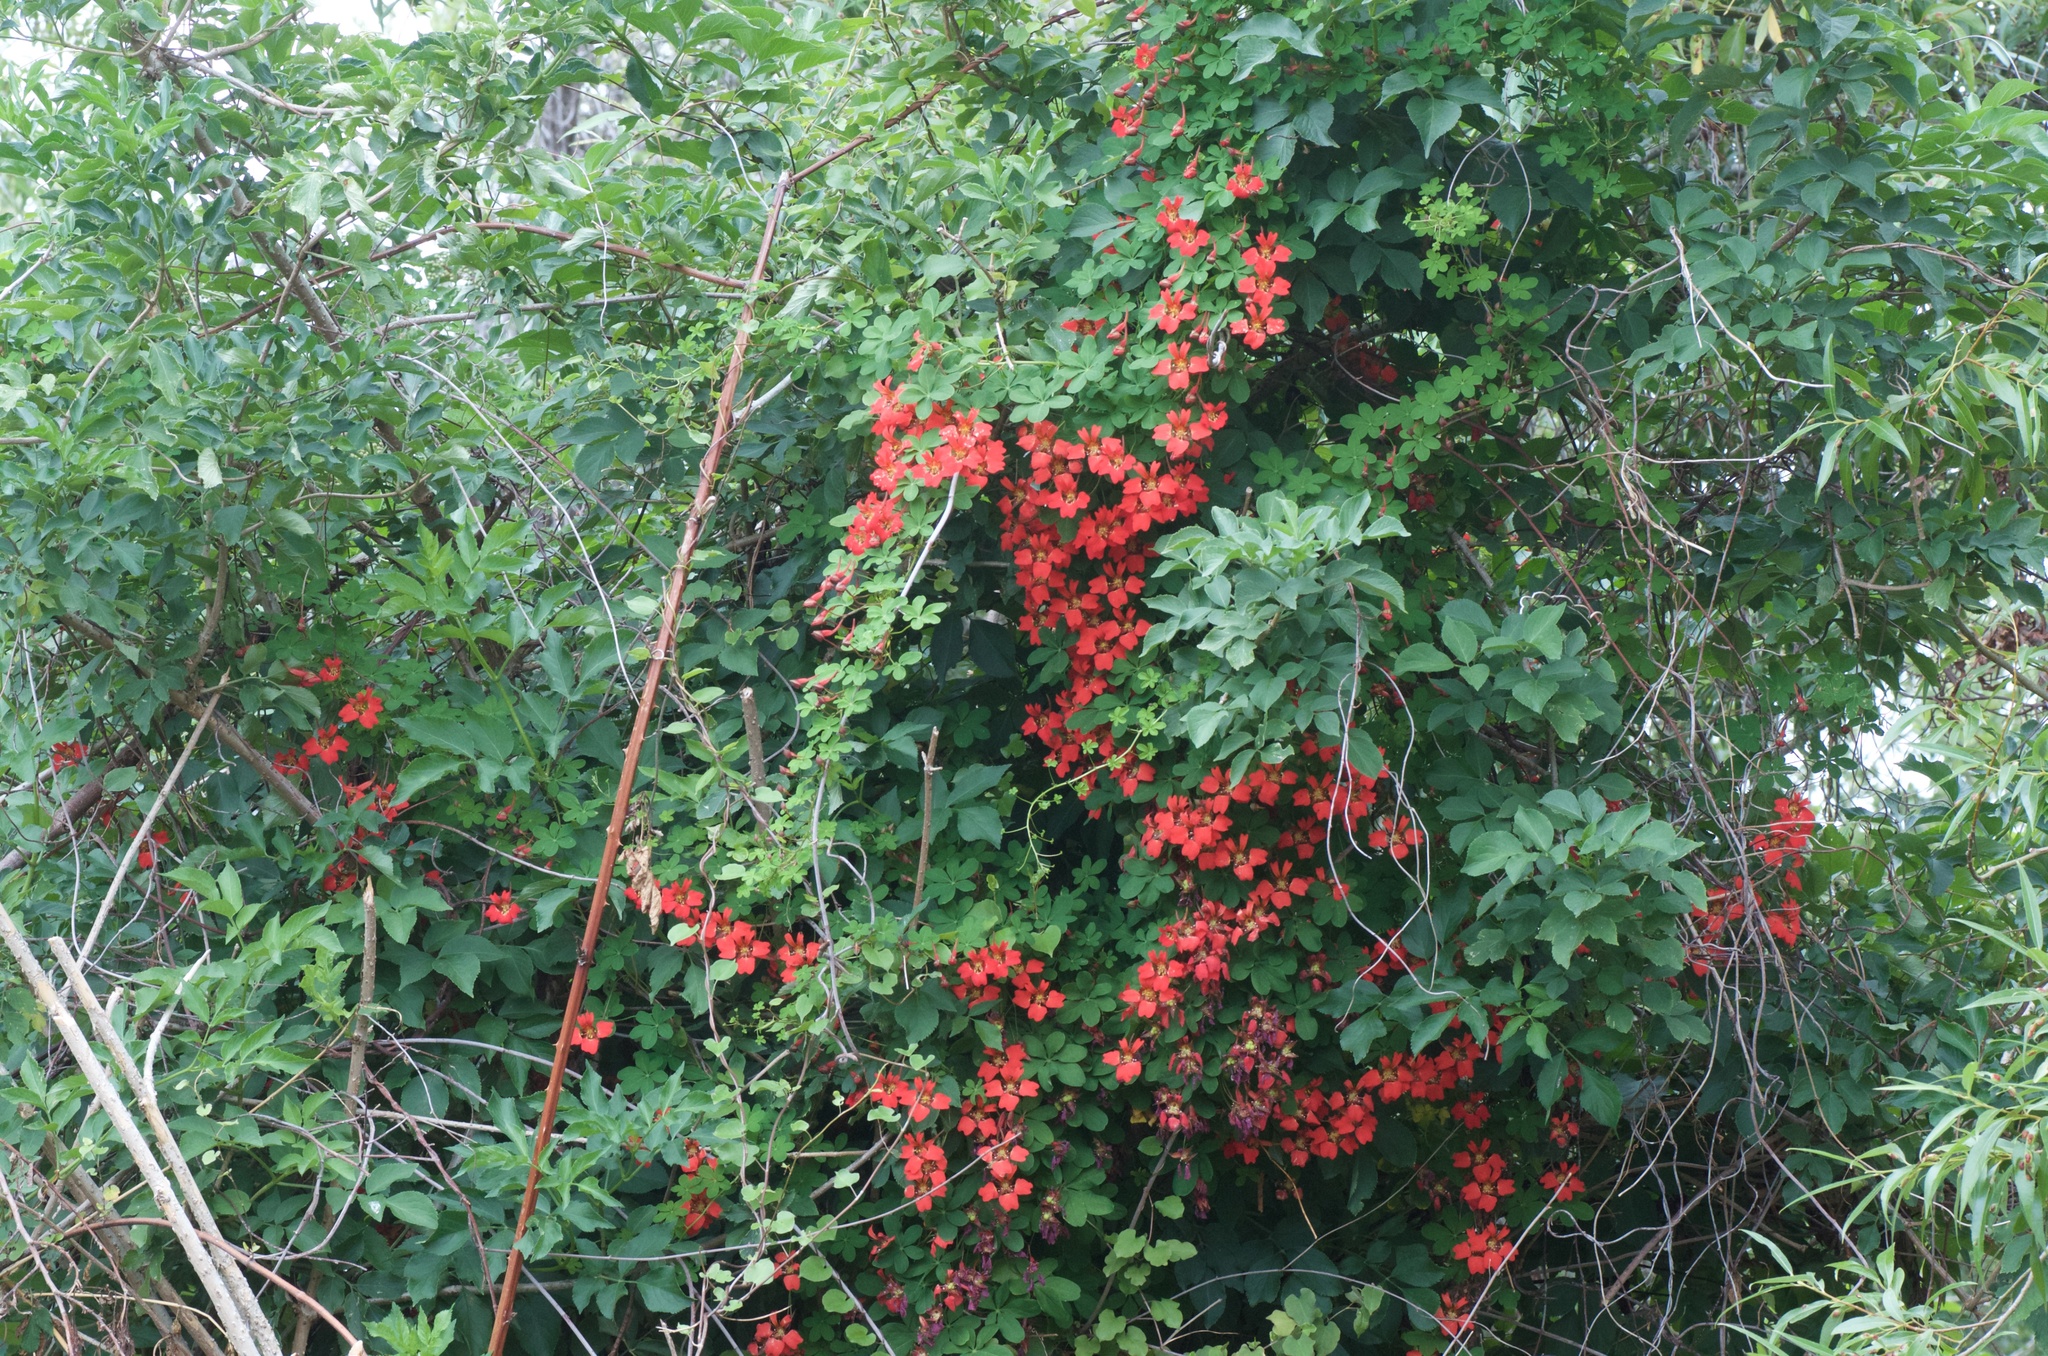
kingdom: Plantae
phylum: Tracheophyta
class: Magnoliopsida
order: Brassicales
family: Tropaeolaceae
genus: Tropaeolum
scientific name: Tropaeolum speciosum
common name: Flame nasturtium
